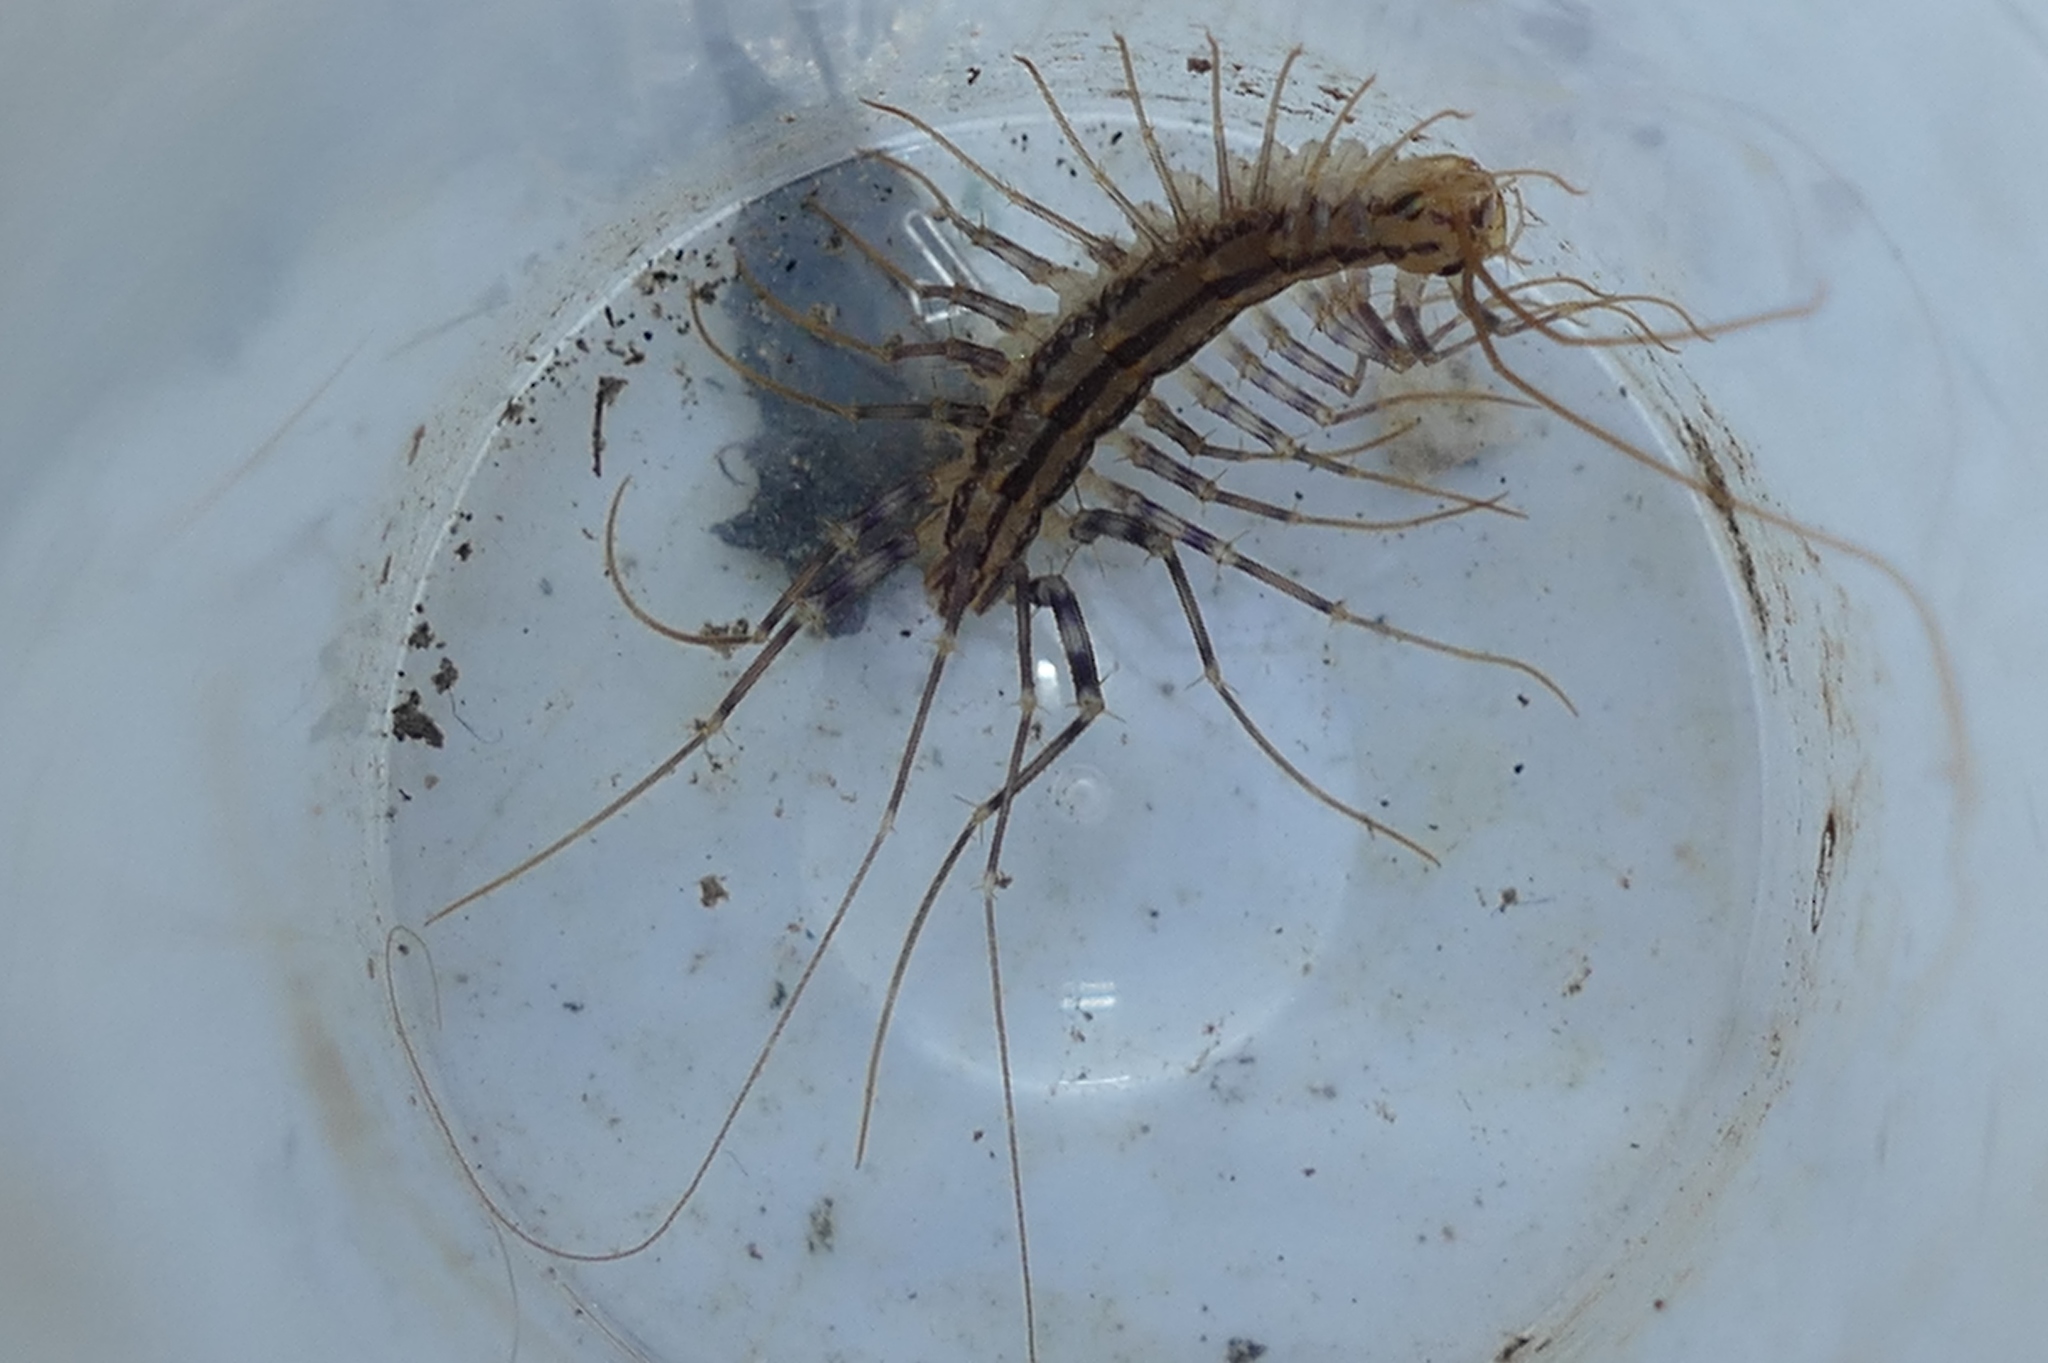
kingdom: Animalia
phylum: Arthropoda
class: Chilopoda
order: Scutigeromorpha
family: Scutigeridae
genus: Scutigera
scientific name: Scutigera coleoptrata
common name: House centipede
